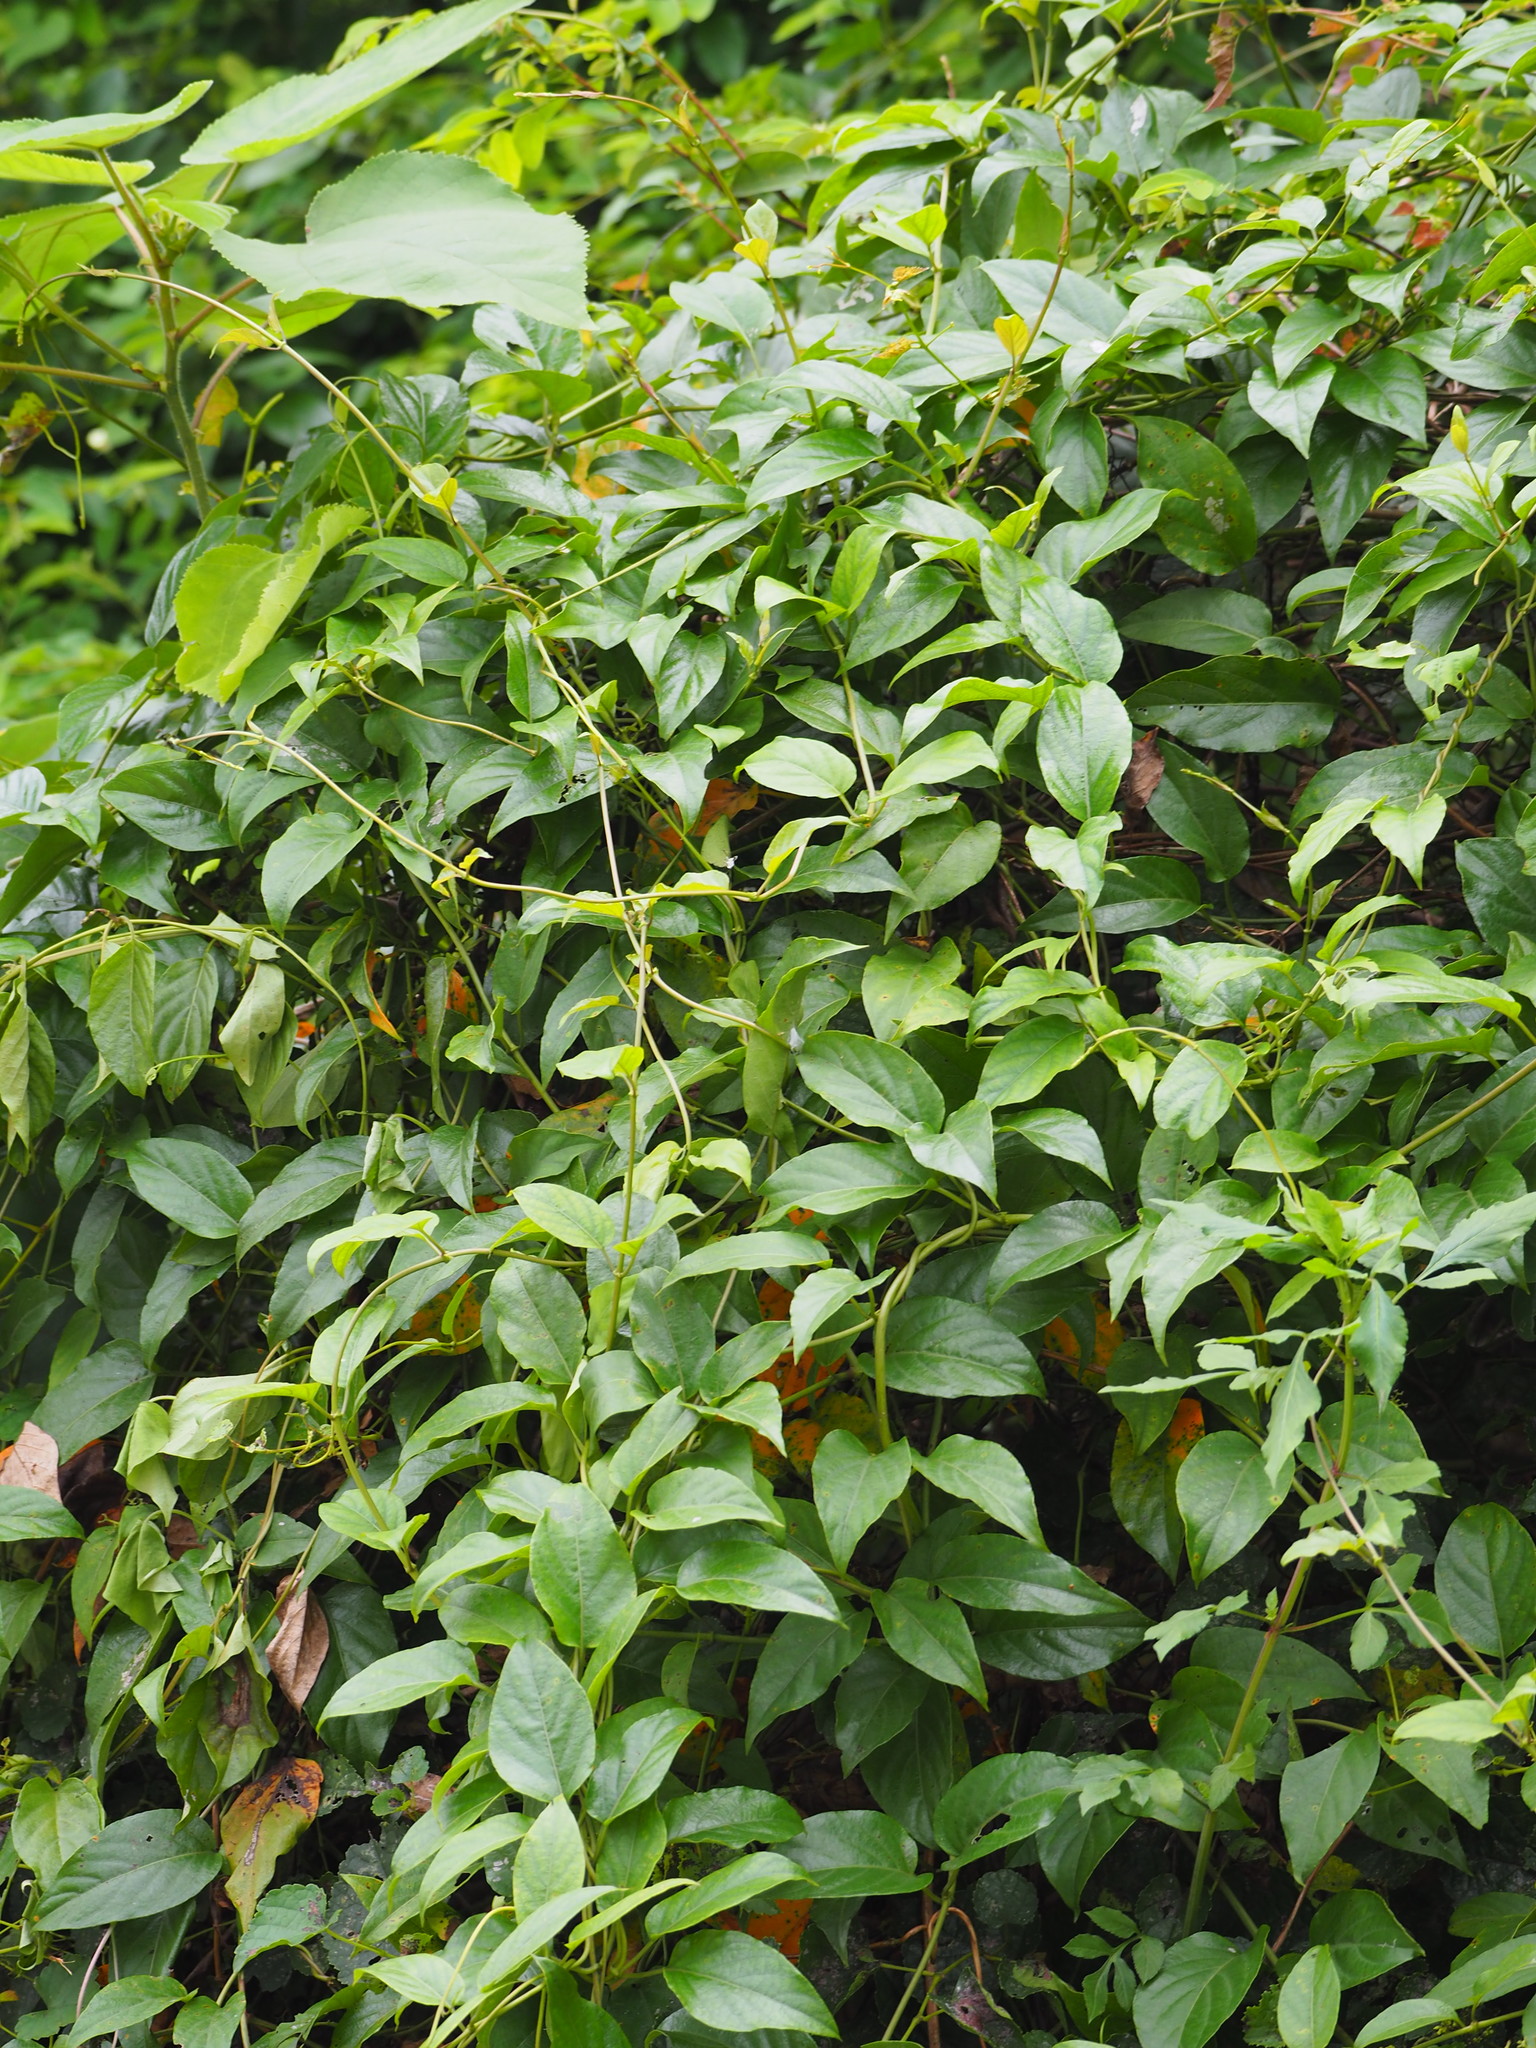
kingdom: Plantae
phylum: Tracheophyta
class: Magnoliopsida
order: Gentianales
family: Rubiaceae
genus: Paederia
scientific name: Paederia foetida
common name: Stinkvine
